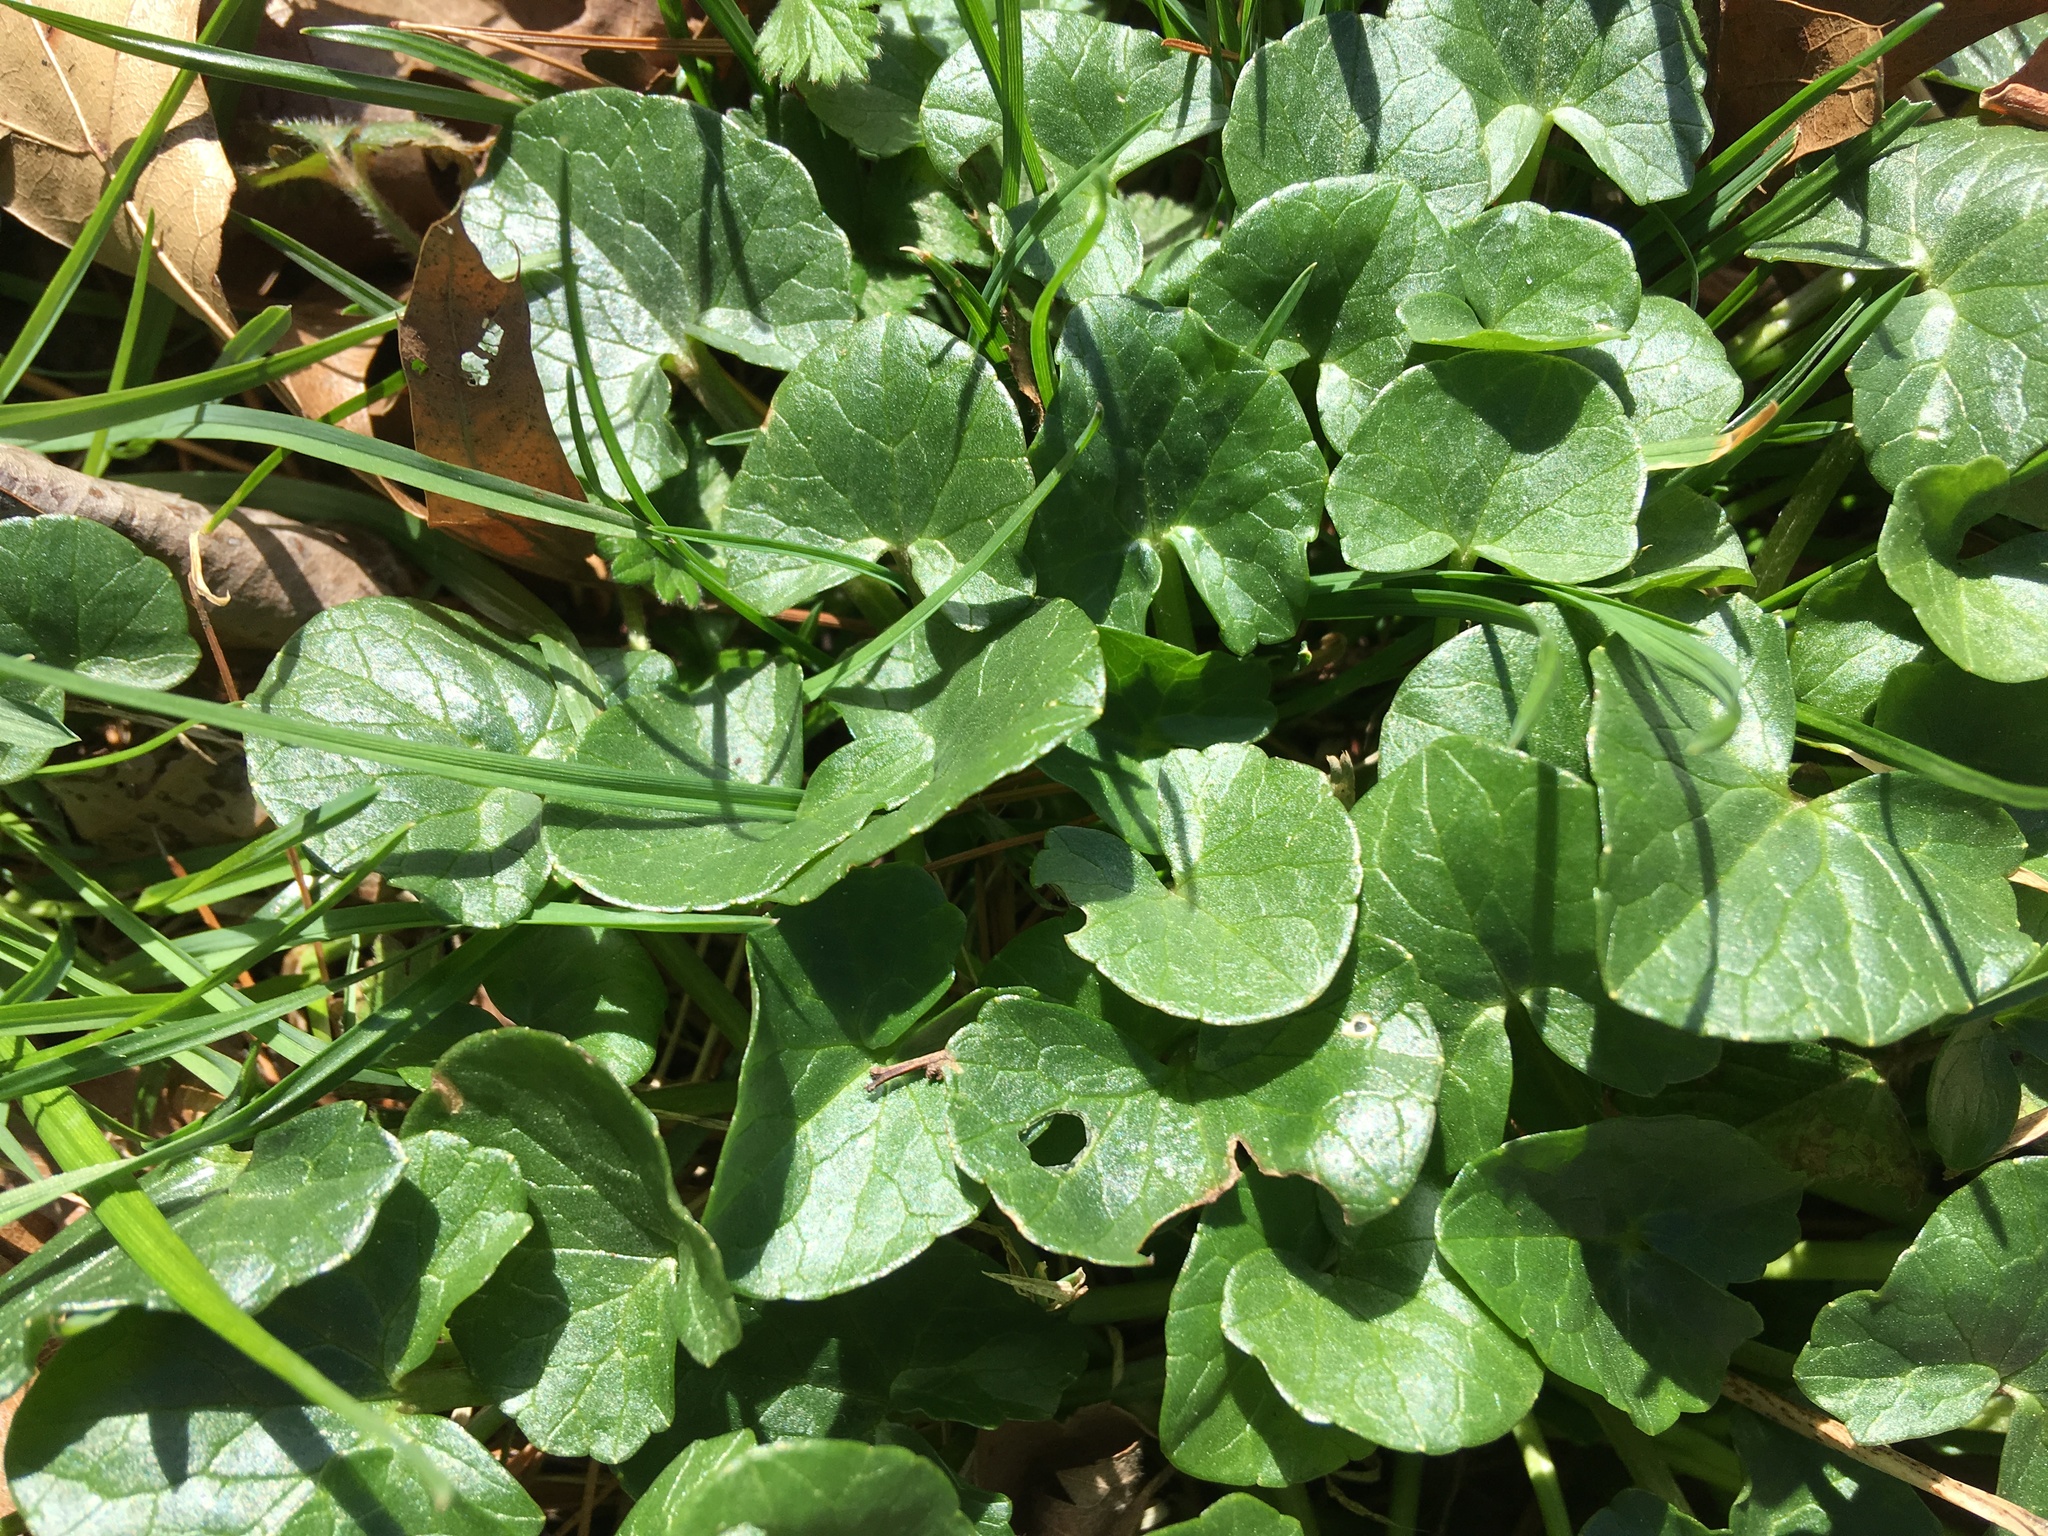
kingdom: Plantae
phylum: Tracheophyta
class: Magnoliopsida
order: Ranunculales
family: Ranunculaceae
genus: Ficaria
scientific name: Ficaria verna
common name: Lesser celandine
